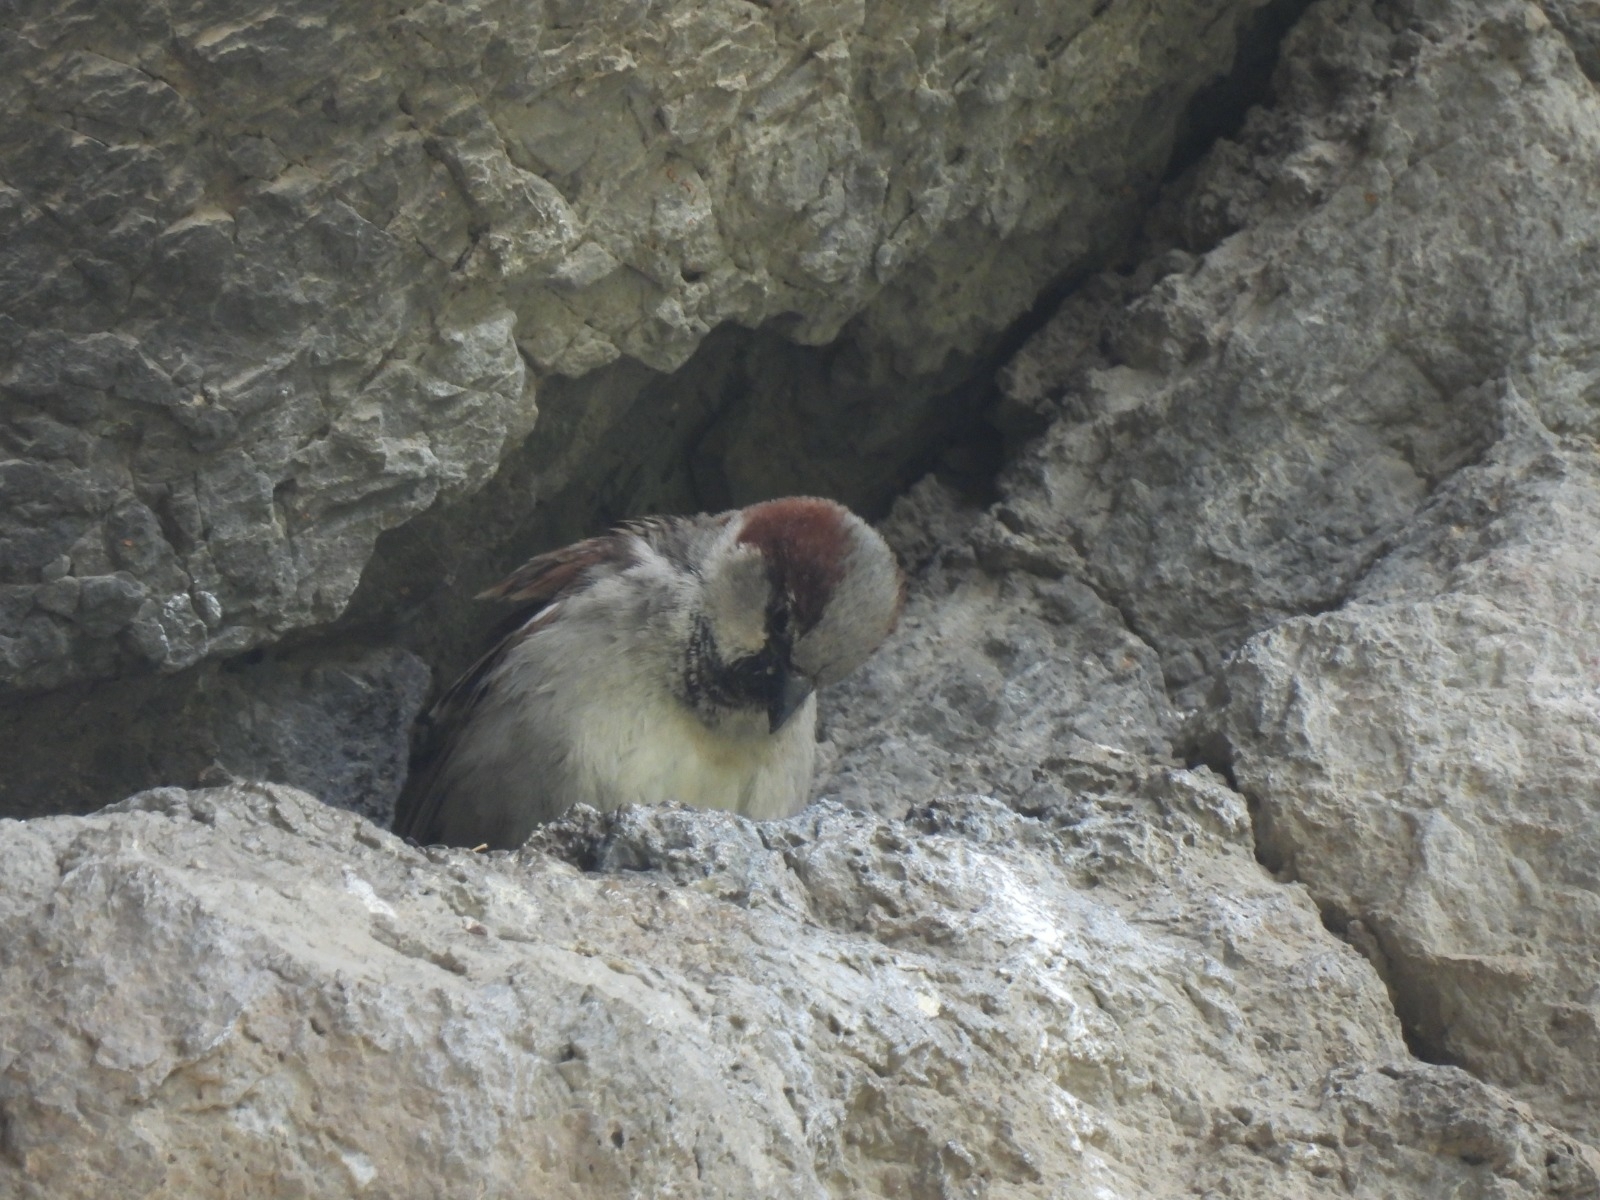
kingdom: Animalia
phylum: Chordata
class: Aves
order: Passeriformes
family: Passeridae
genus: Passer
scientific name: Passer domesticus
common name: House sparrow
